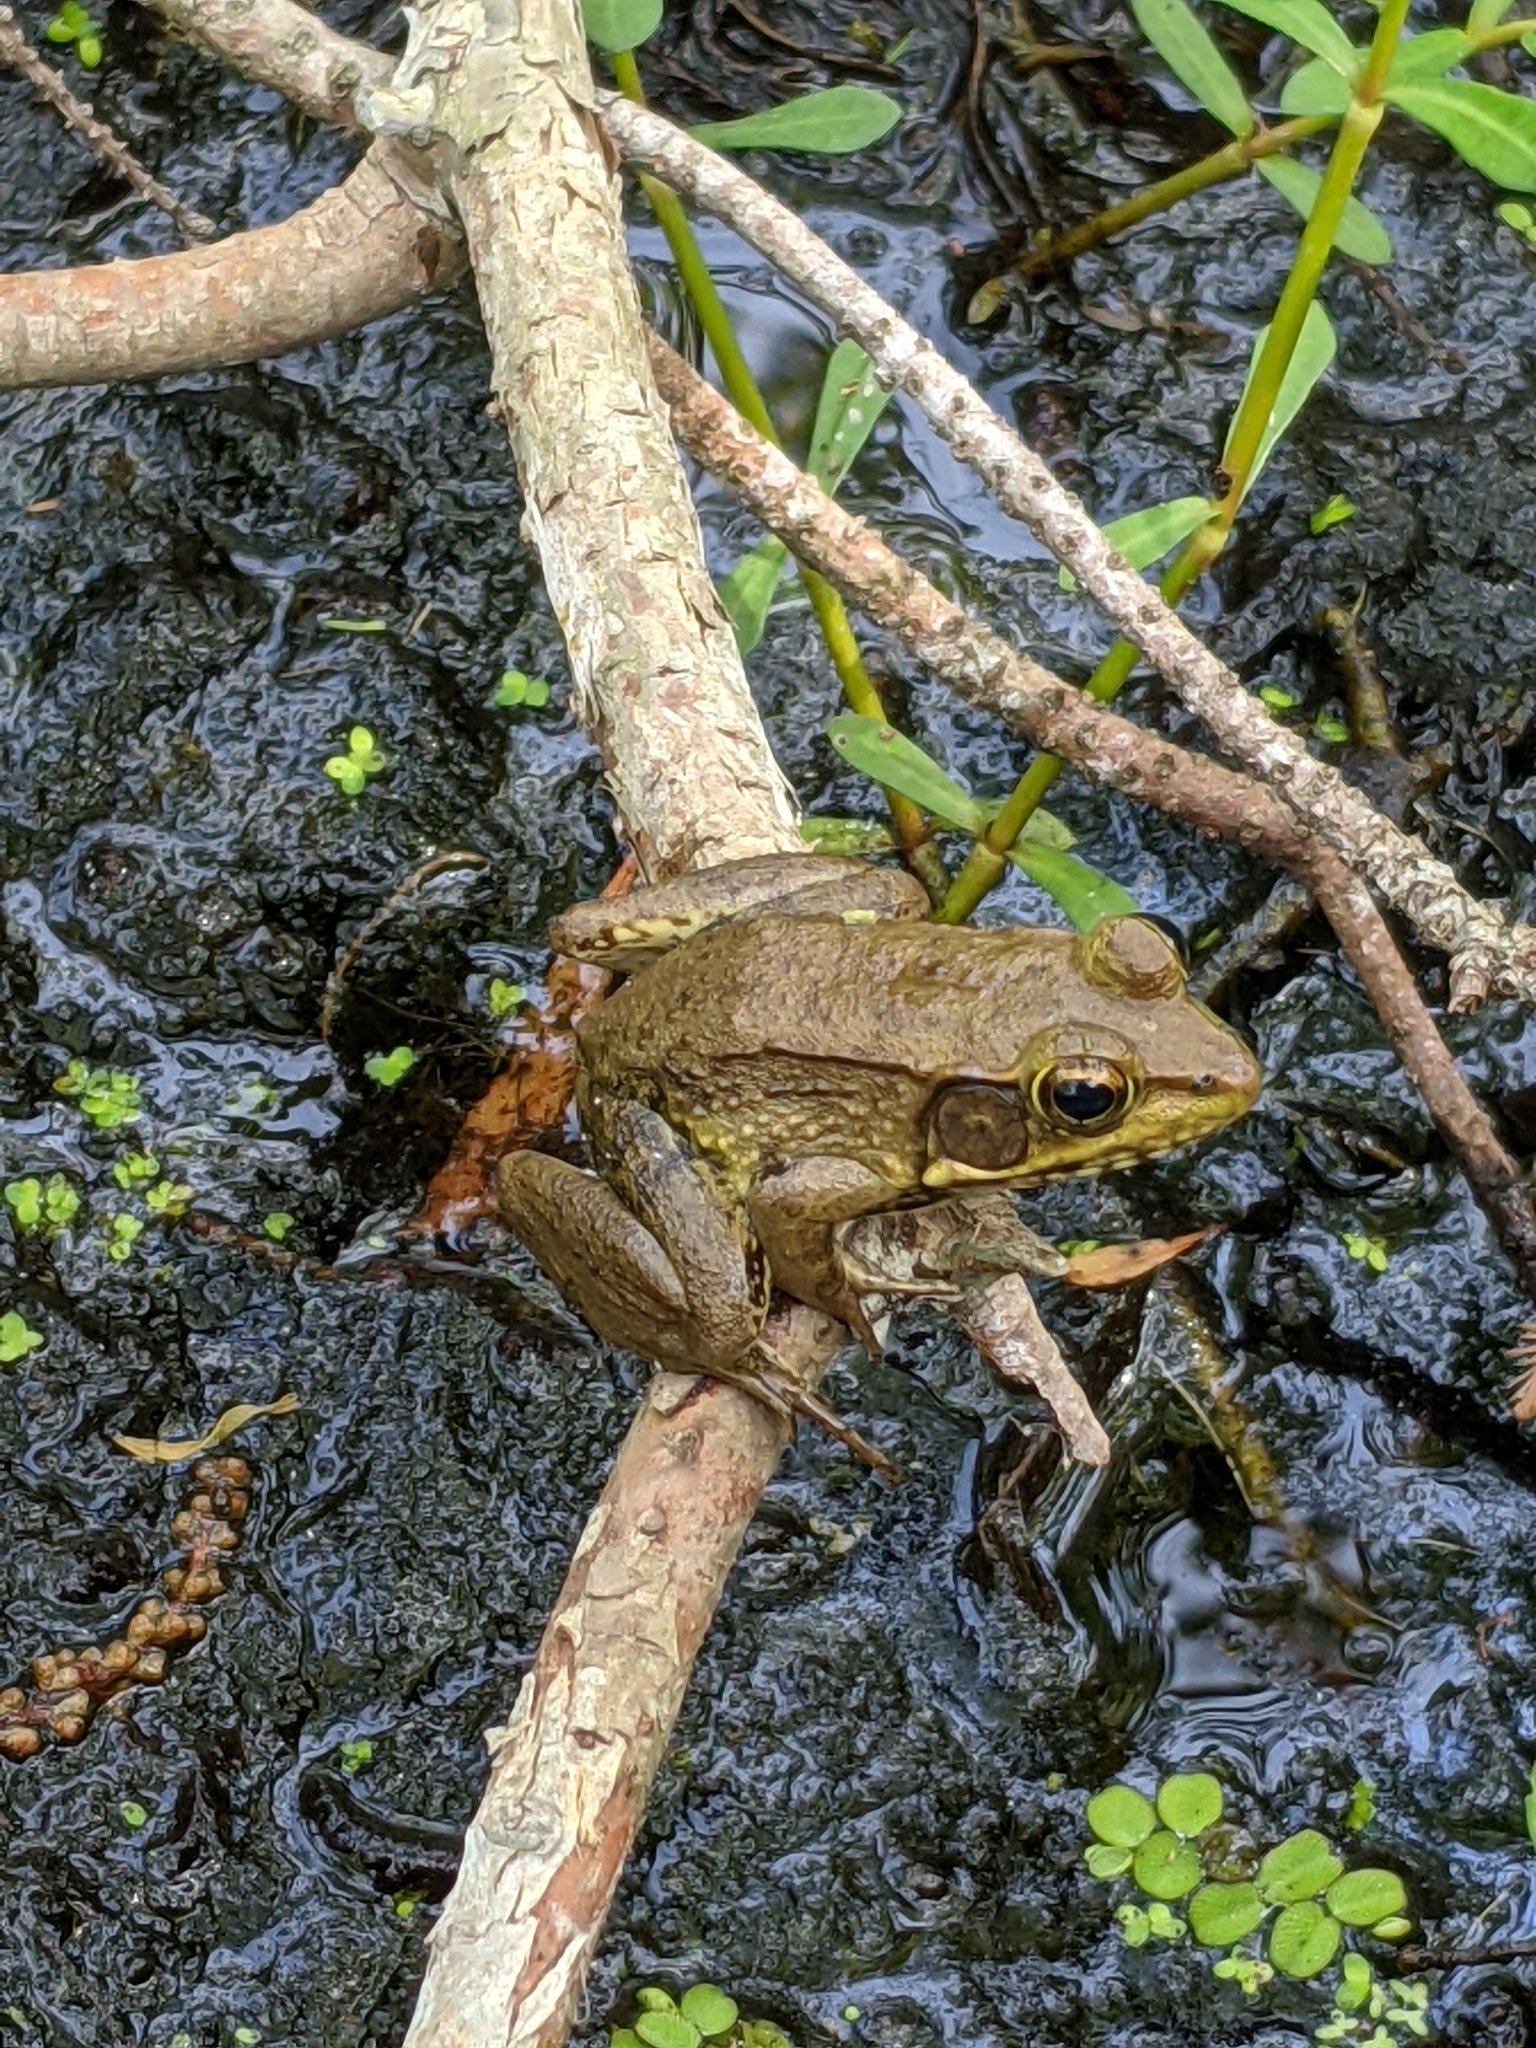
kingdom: Animalia
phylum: Chordata
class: Amphibia
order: Anura
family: Ranidae
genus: Lithobates
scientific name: Lithobates clamitans
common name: Green frog
